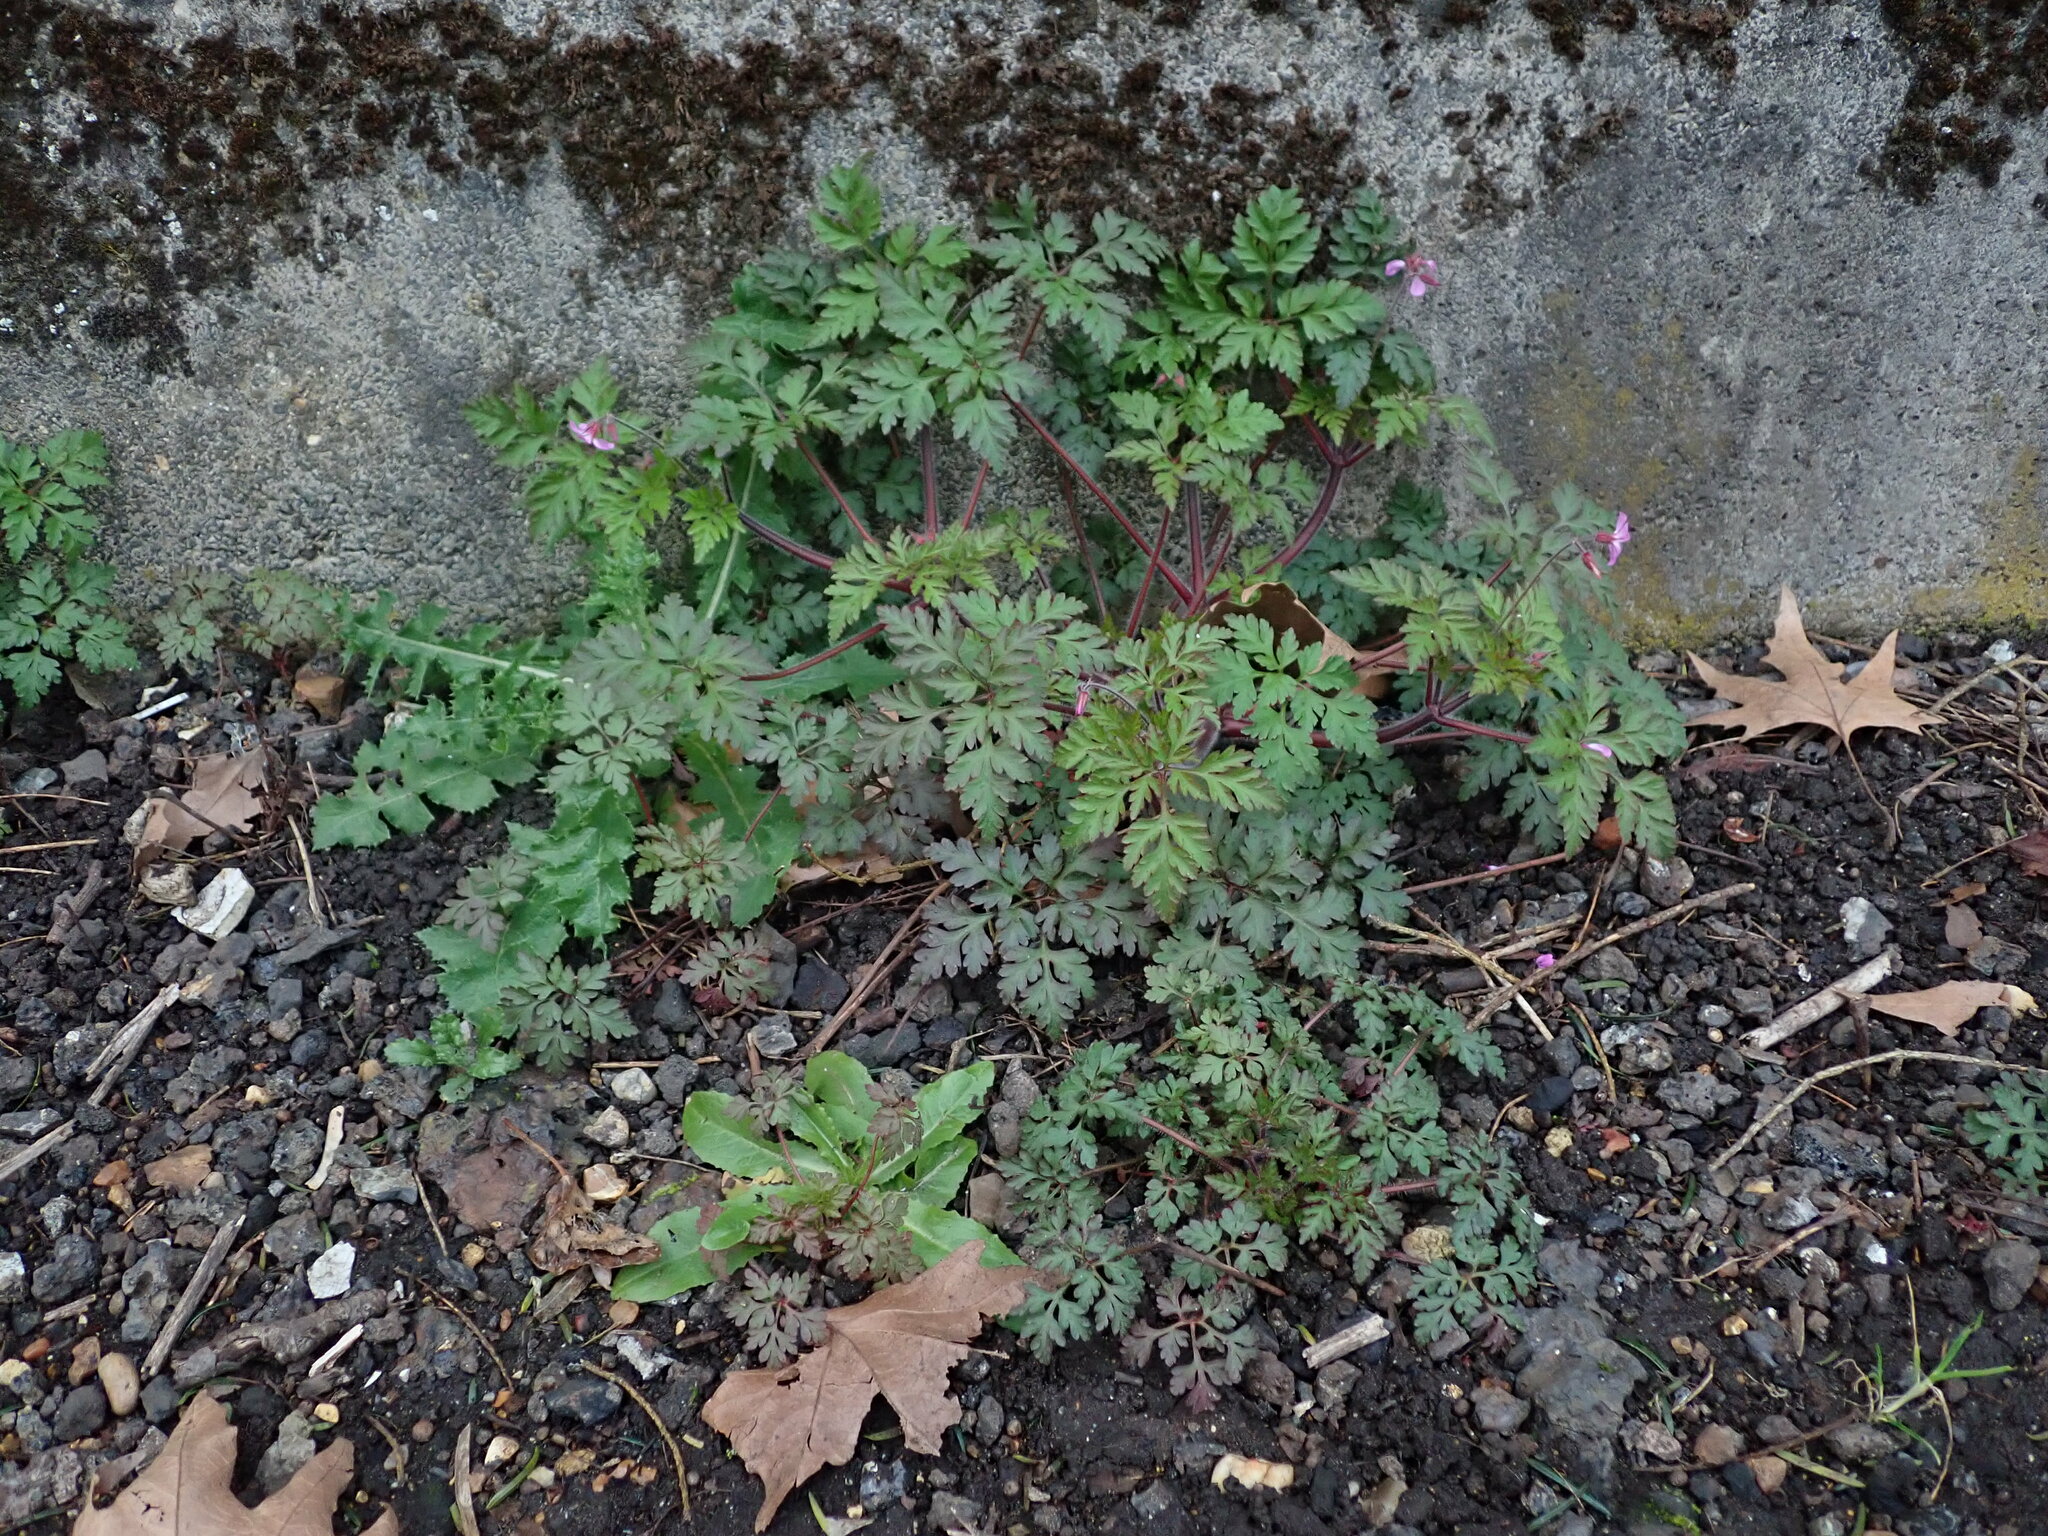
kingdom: Plantae
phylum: Tracheophyta
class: Magnoliopsida
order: Geraniales
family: Geraniaceae
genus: Geranium
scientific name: Geranium robertianum
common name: Herb-robert
